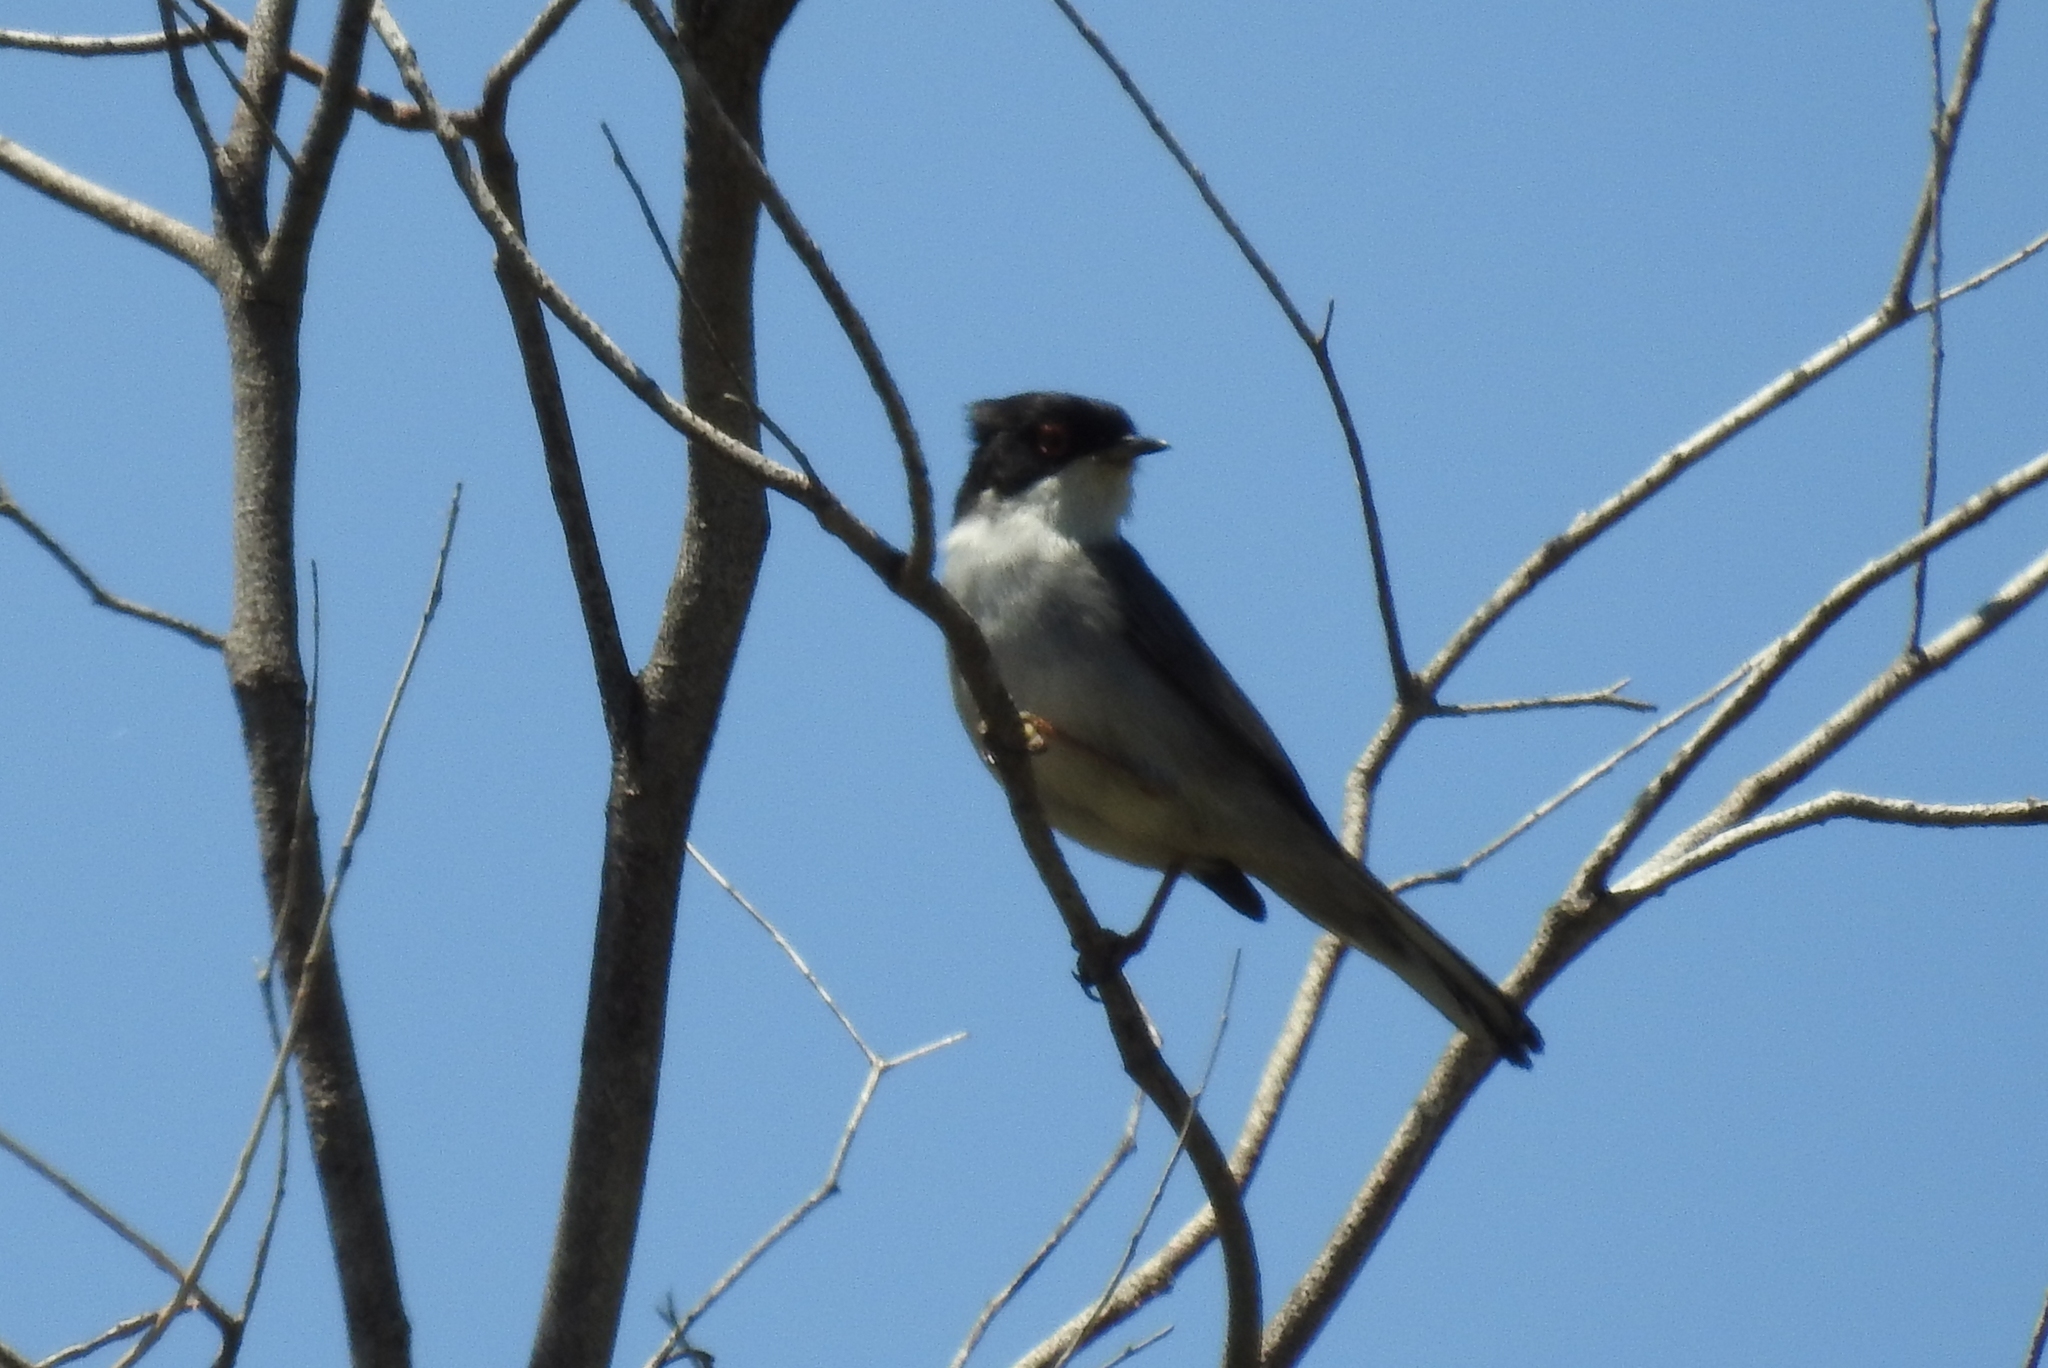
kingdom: Animalia
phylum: Chordata
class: Aves
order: Passeriformes
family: Sylviidae
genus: Curruca
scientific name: Curruca melanocephala
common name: Sardinian warbler
